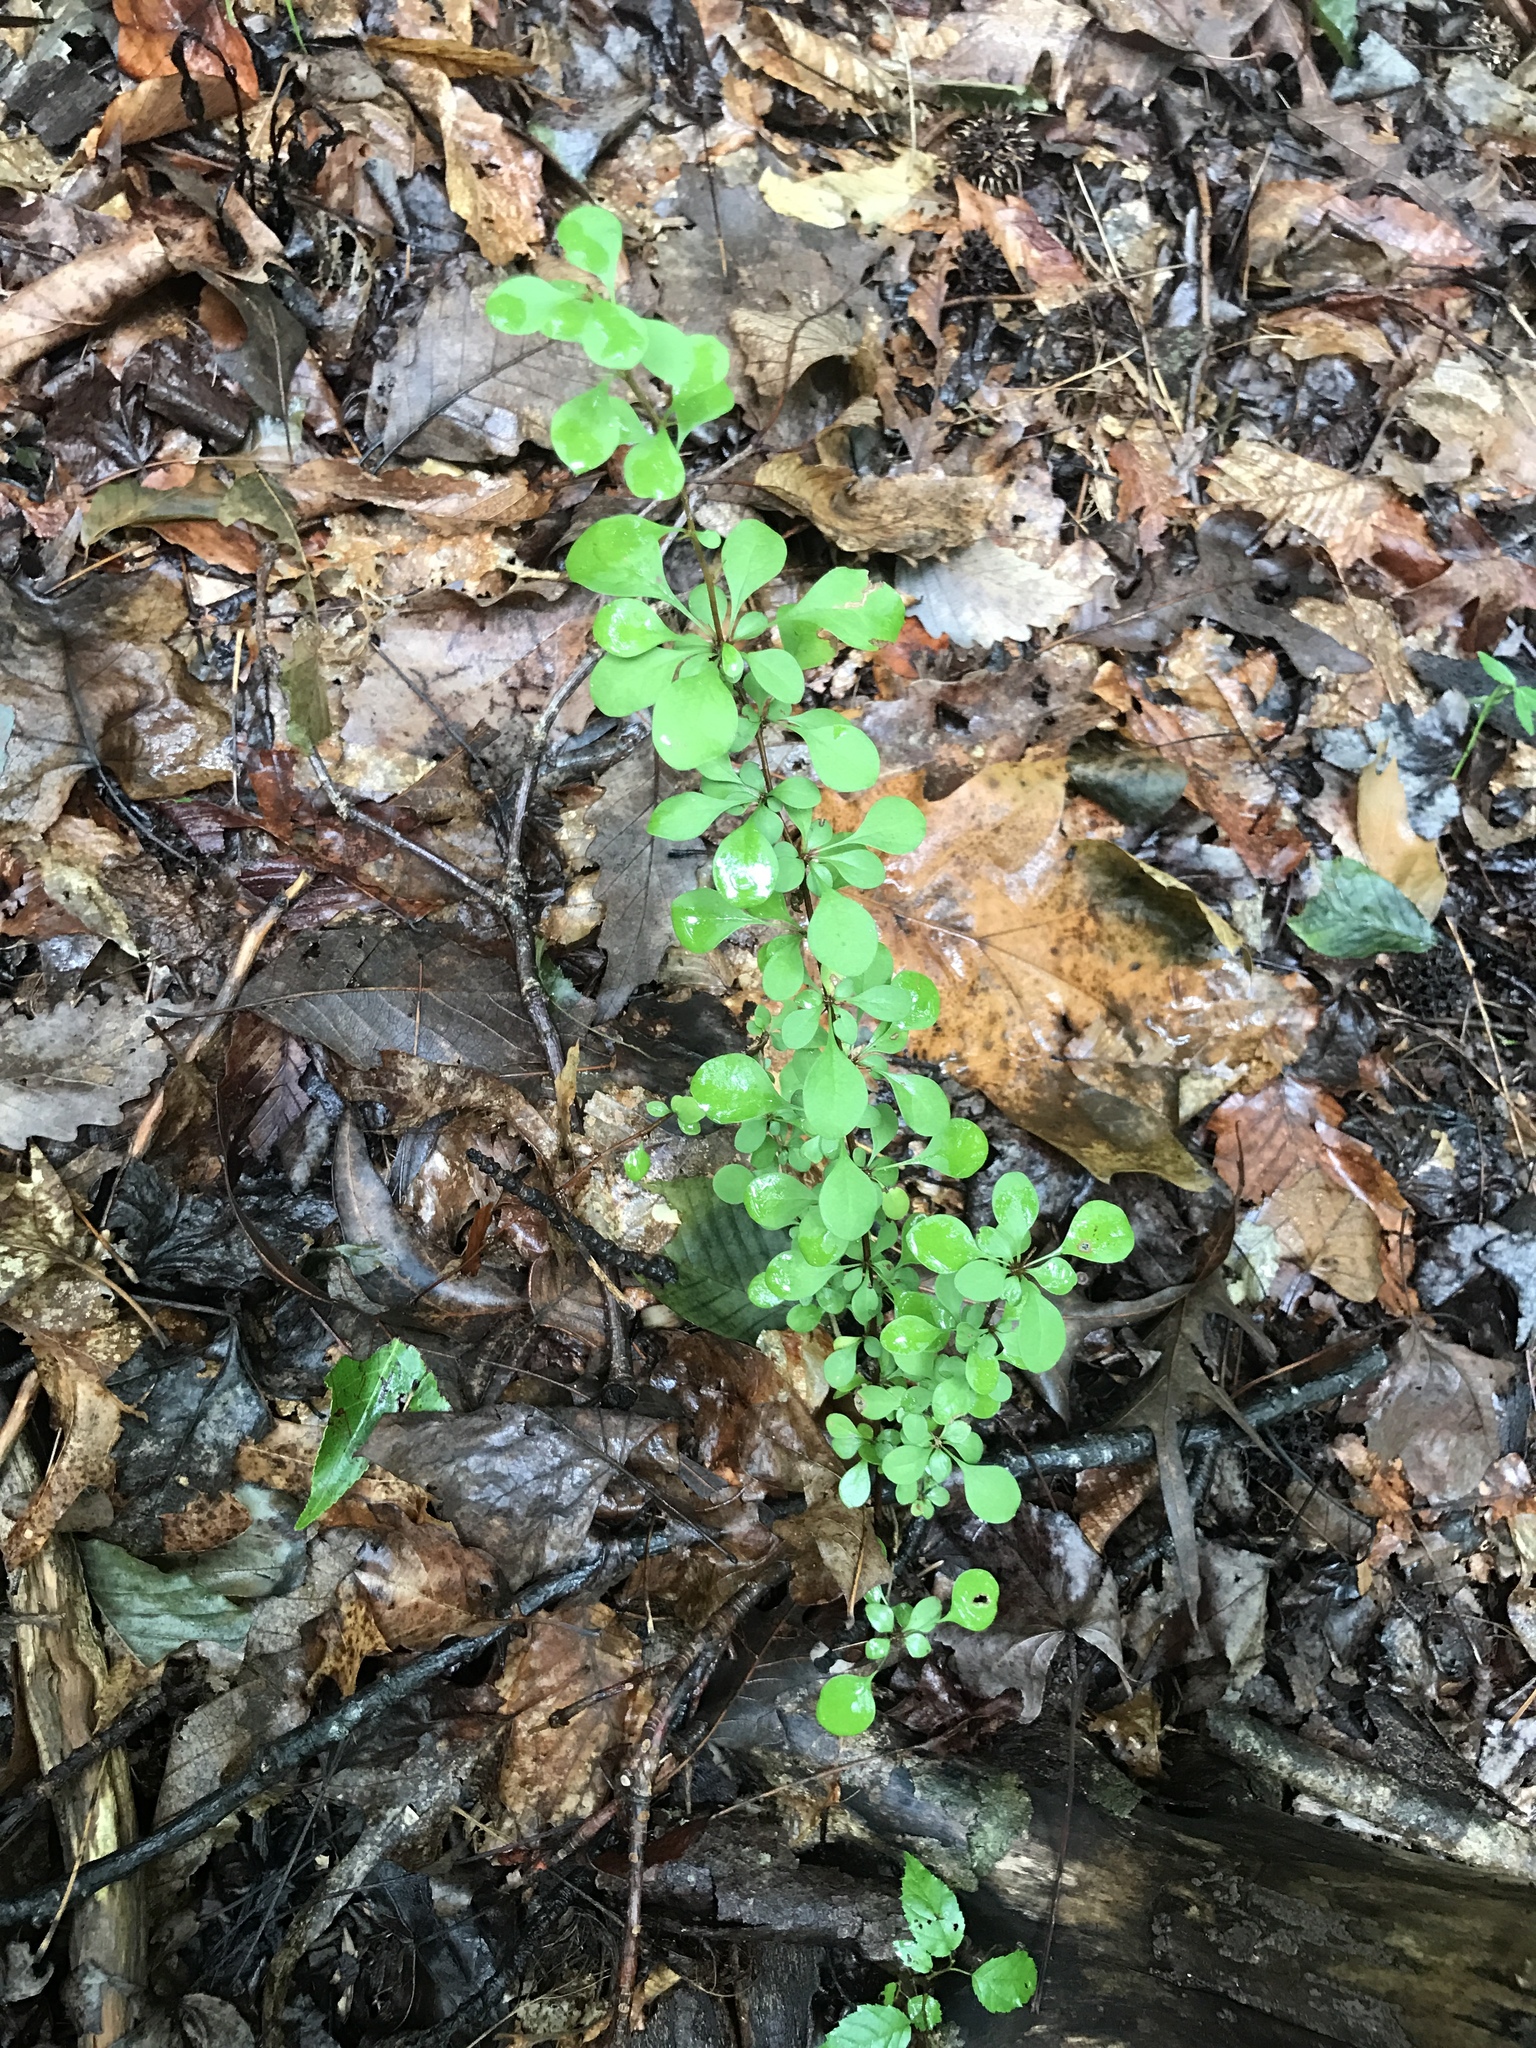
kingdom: Plantae
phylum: Tracheophyta
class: Magnoliopsida
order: Ranunculales
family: Berberidaceae
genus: Berberis
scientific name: Berberis thunbergii
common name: Japanese barberry
